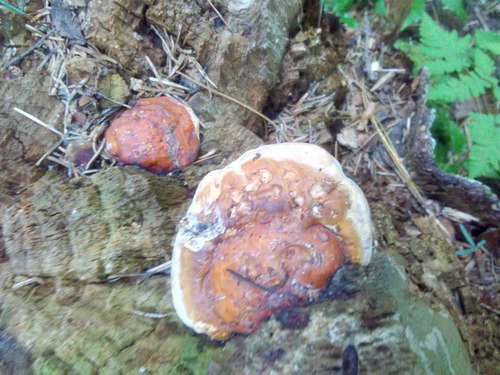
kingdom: Fungi
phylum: Basidiomycota
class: Agaricomycetes
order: Polyporales
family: Fomitopsidaceae
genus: Fomitopsis
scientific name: Fomitopsis pinicola
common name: Red-belted bracket
